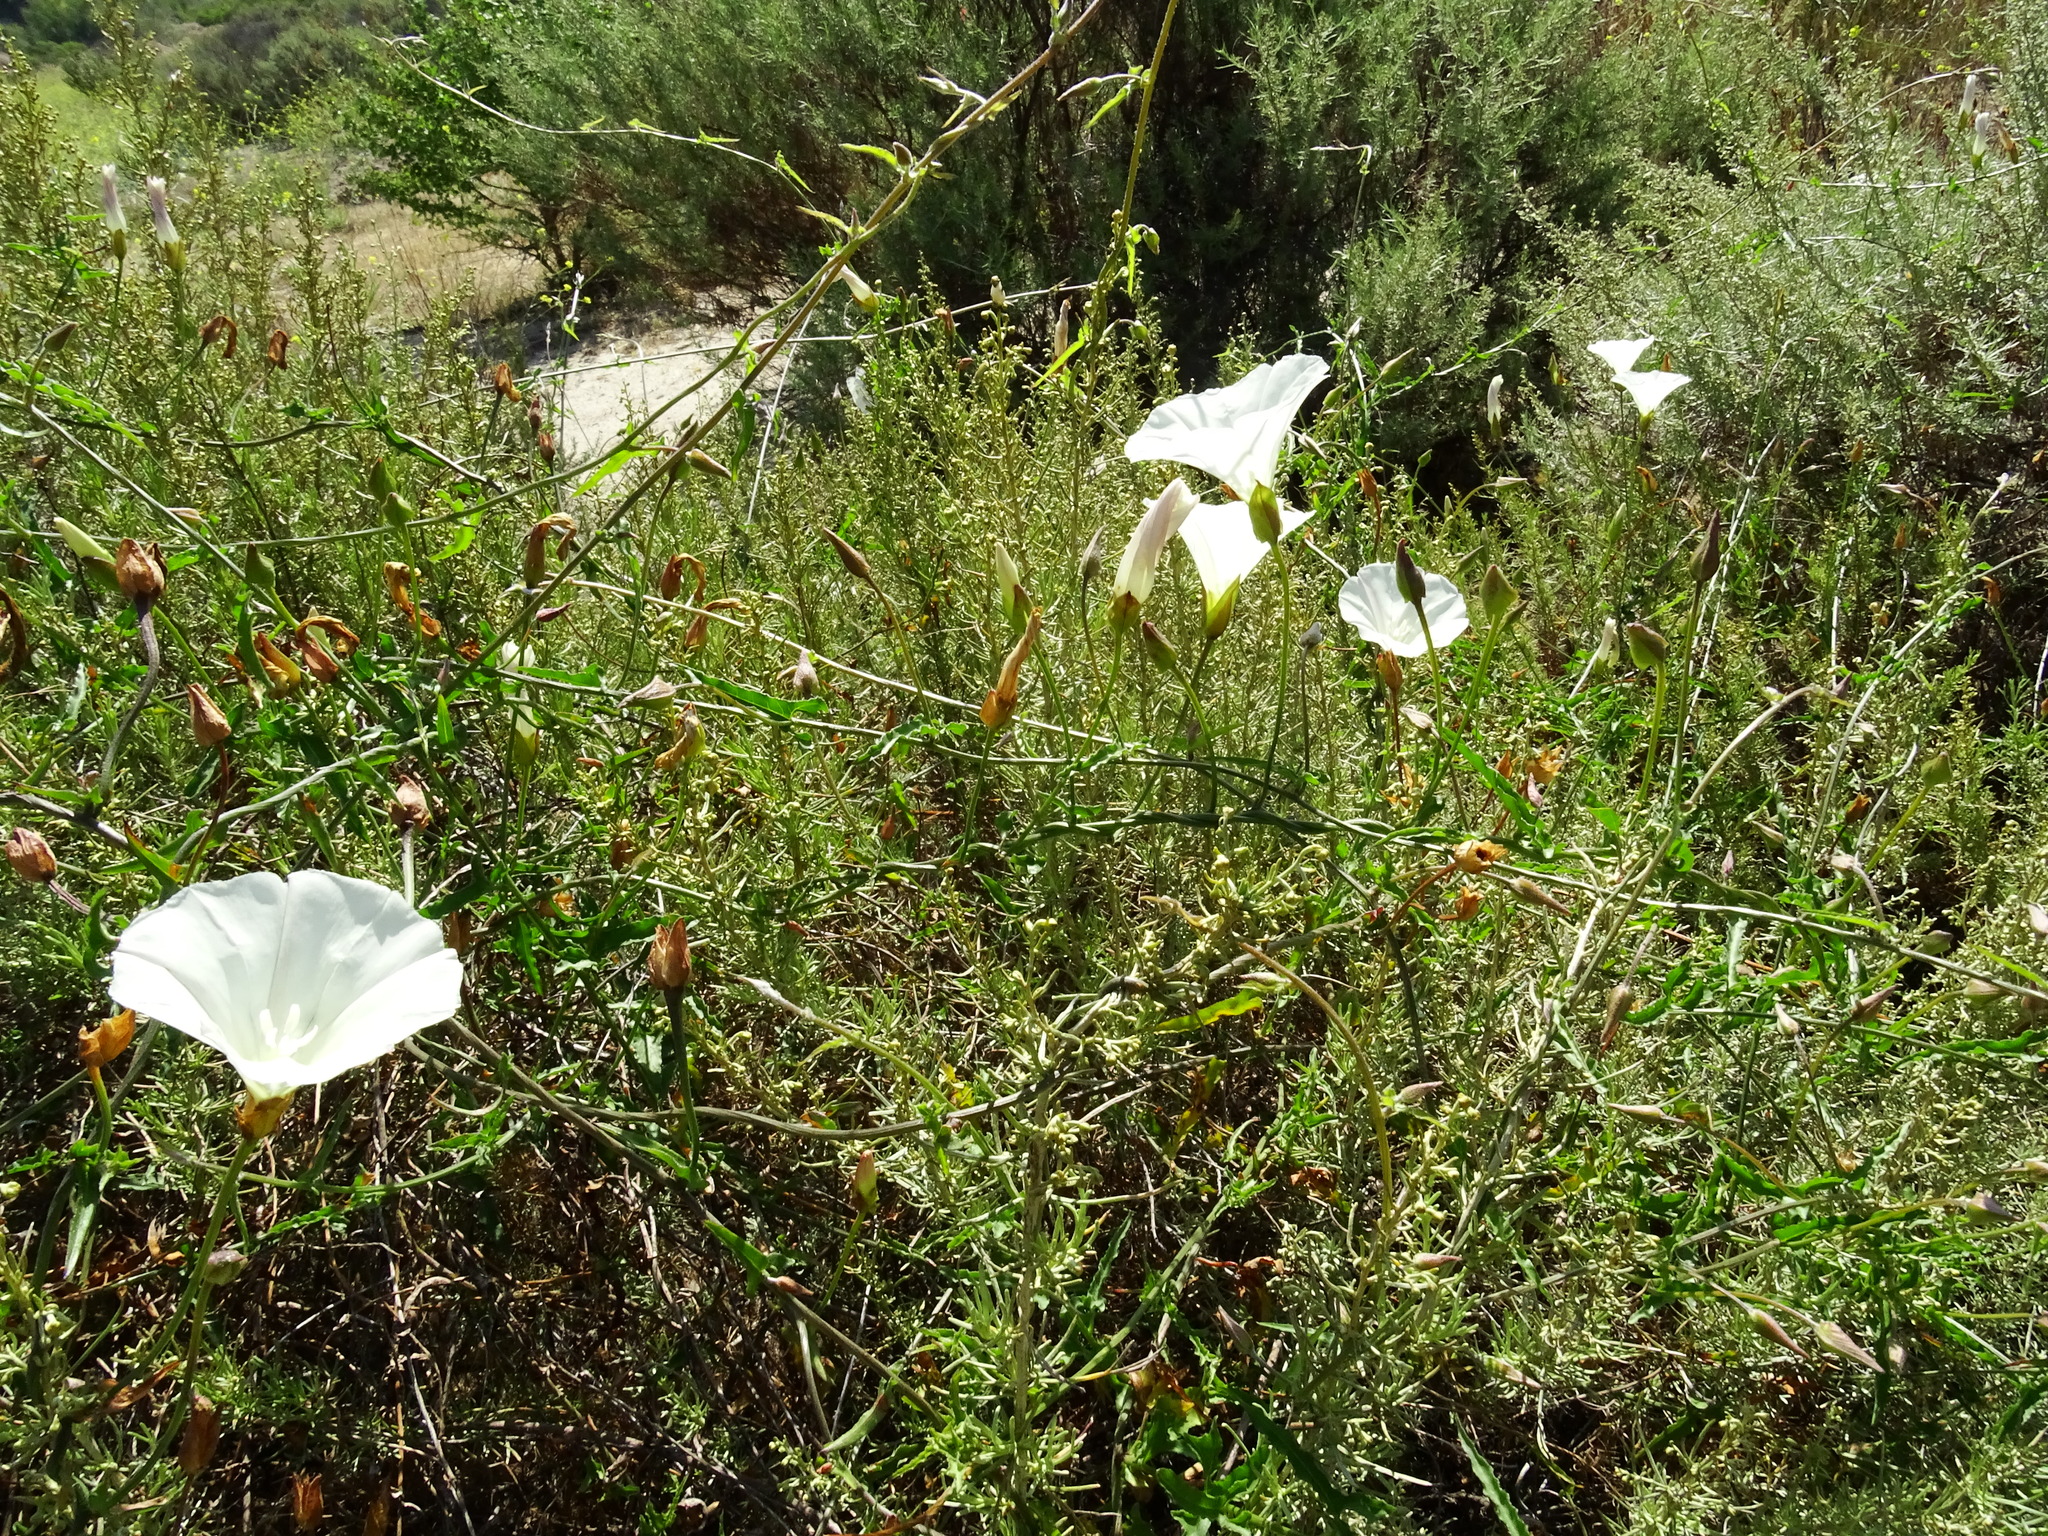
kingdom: Plantae
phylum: Tracheophyta
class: Magnoliopsida
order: Solanales
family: Convolvulaceae
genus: Calystegia
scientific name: Calystegia macrostegia
